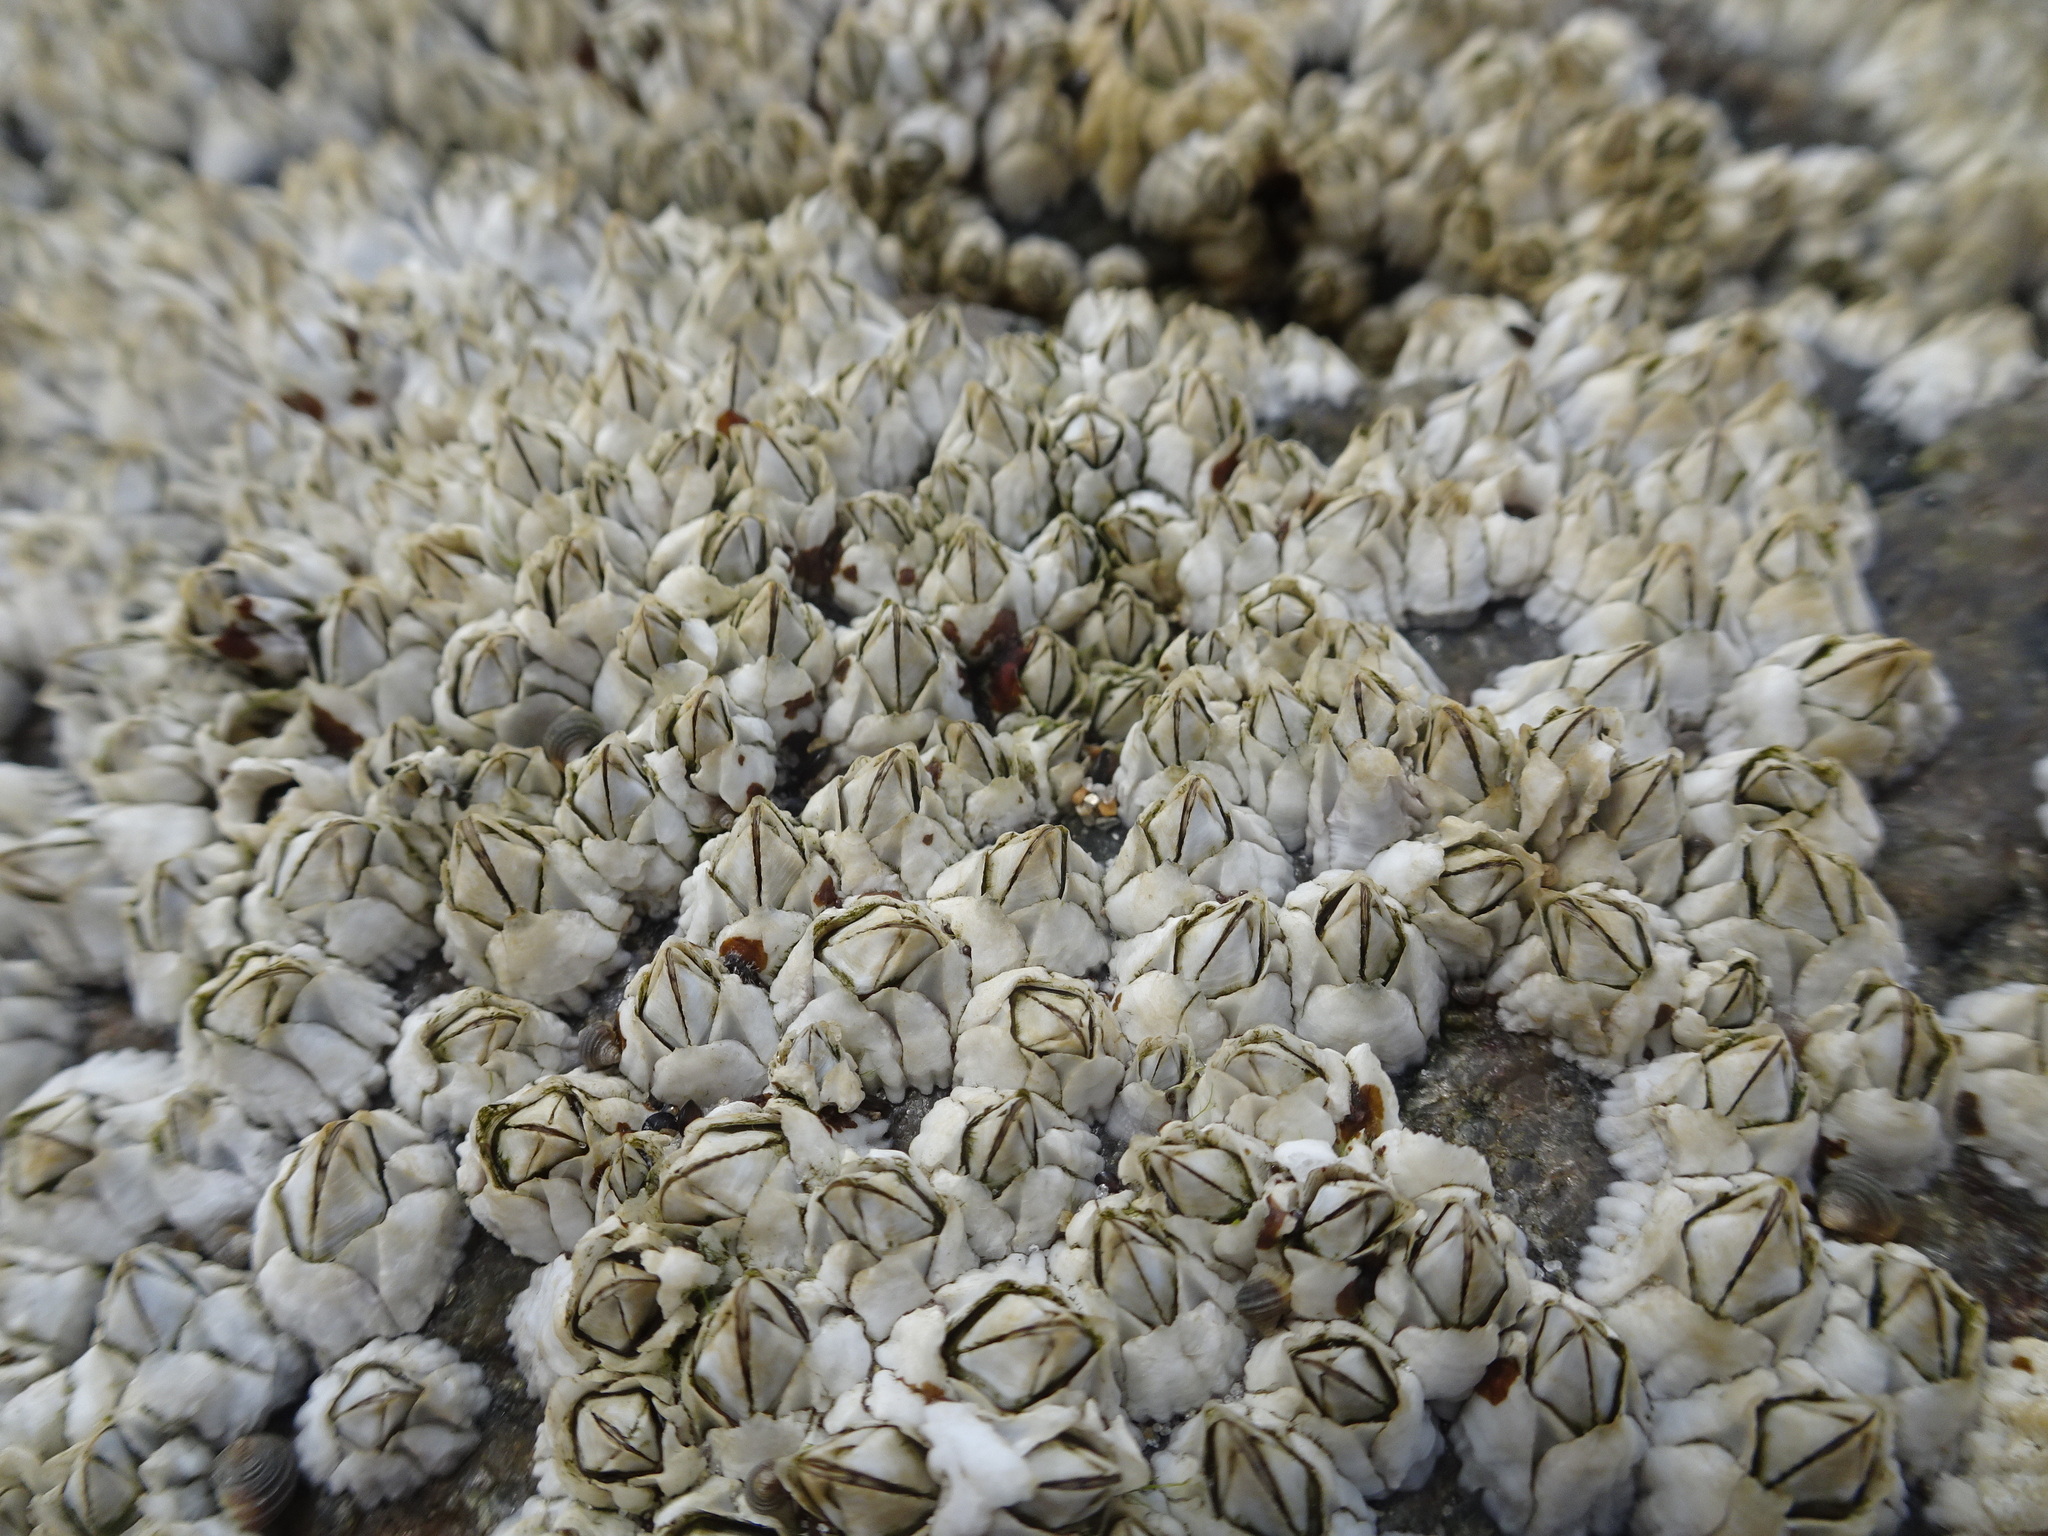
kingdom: Animalia
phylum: Arthropoda
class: Maxillopoda
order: Sessilia
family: Archaeobalanidae
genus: Semibalanus
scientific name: Semibalanus balanoides
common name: Acorn barnacle
